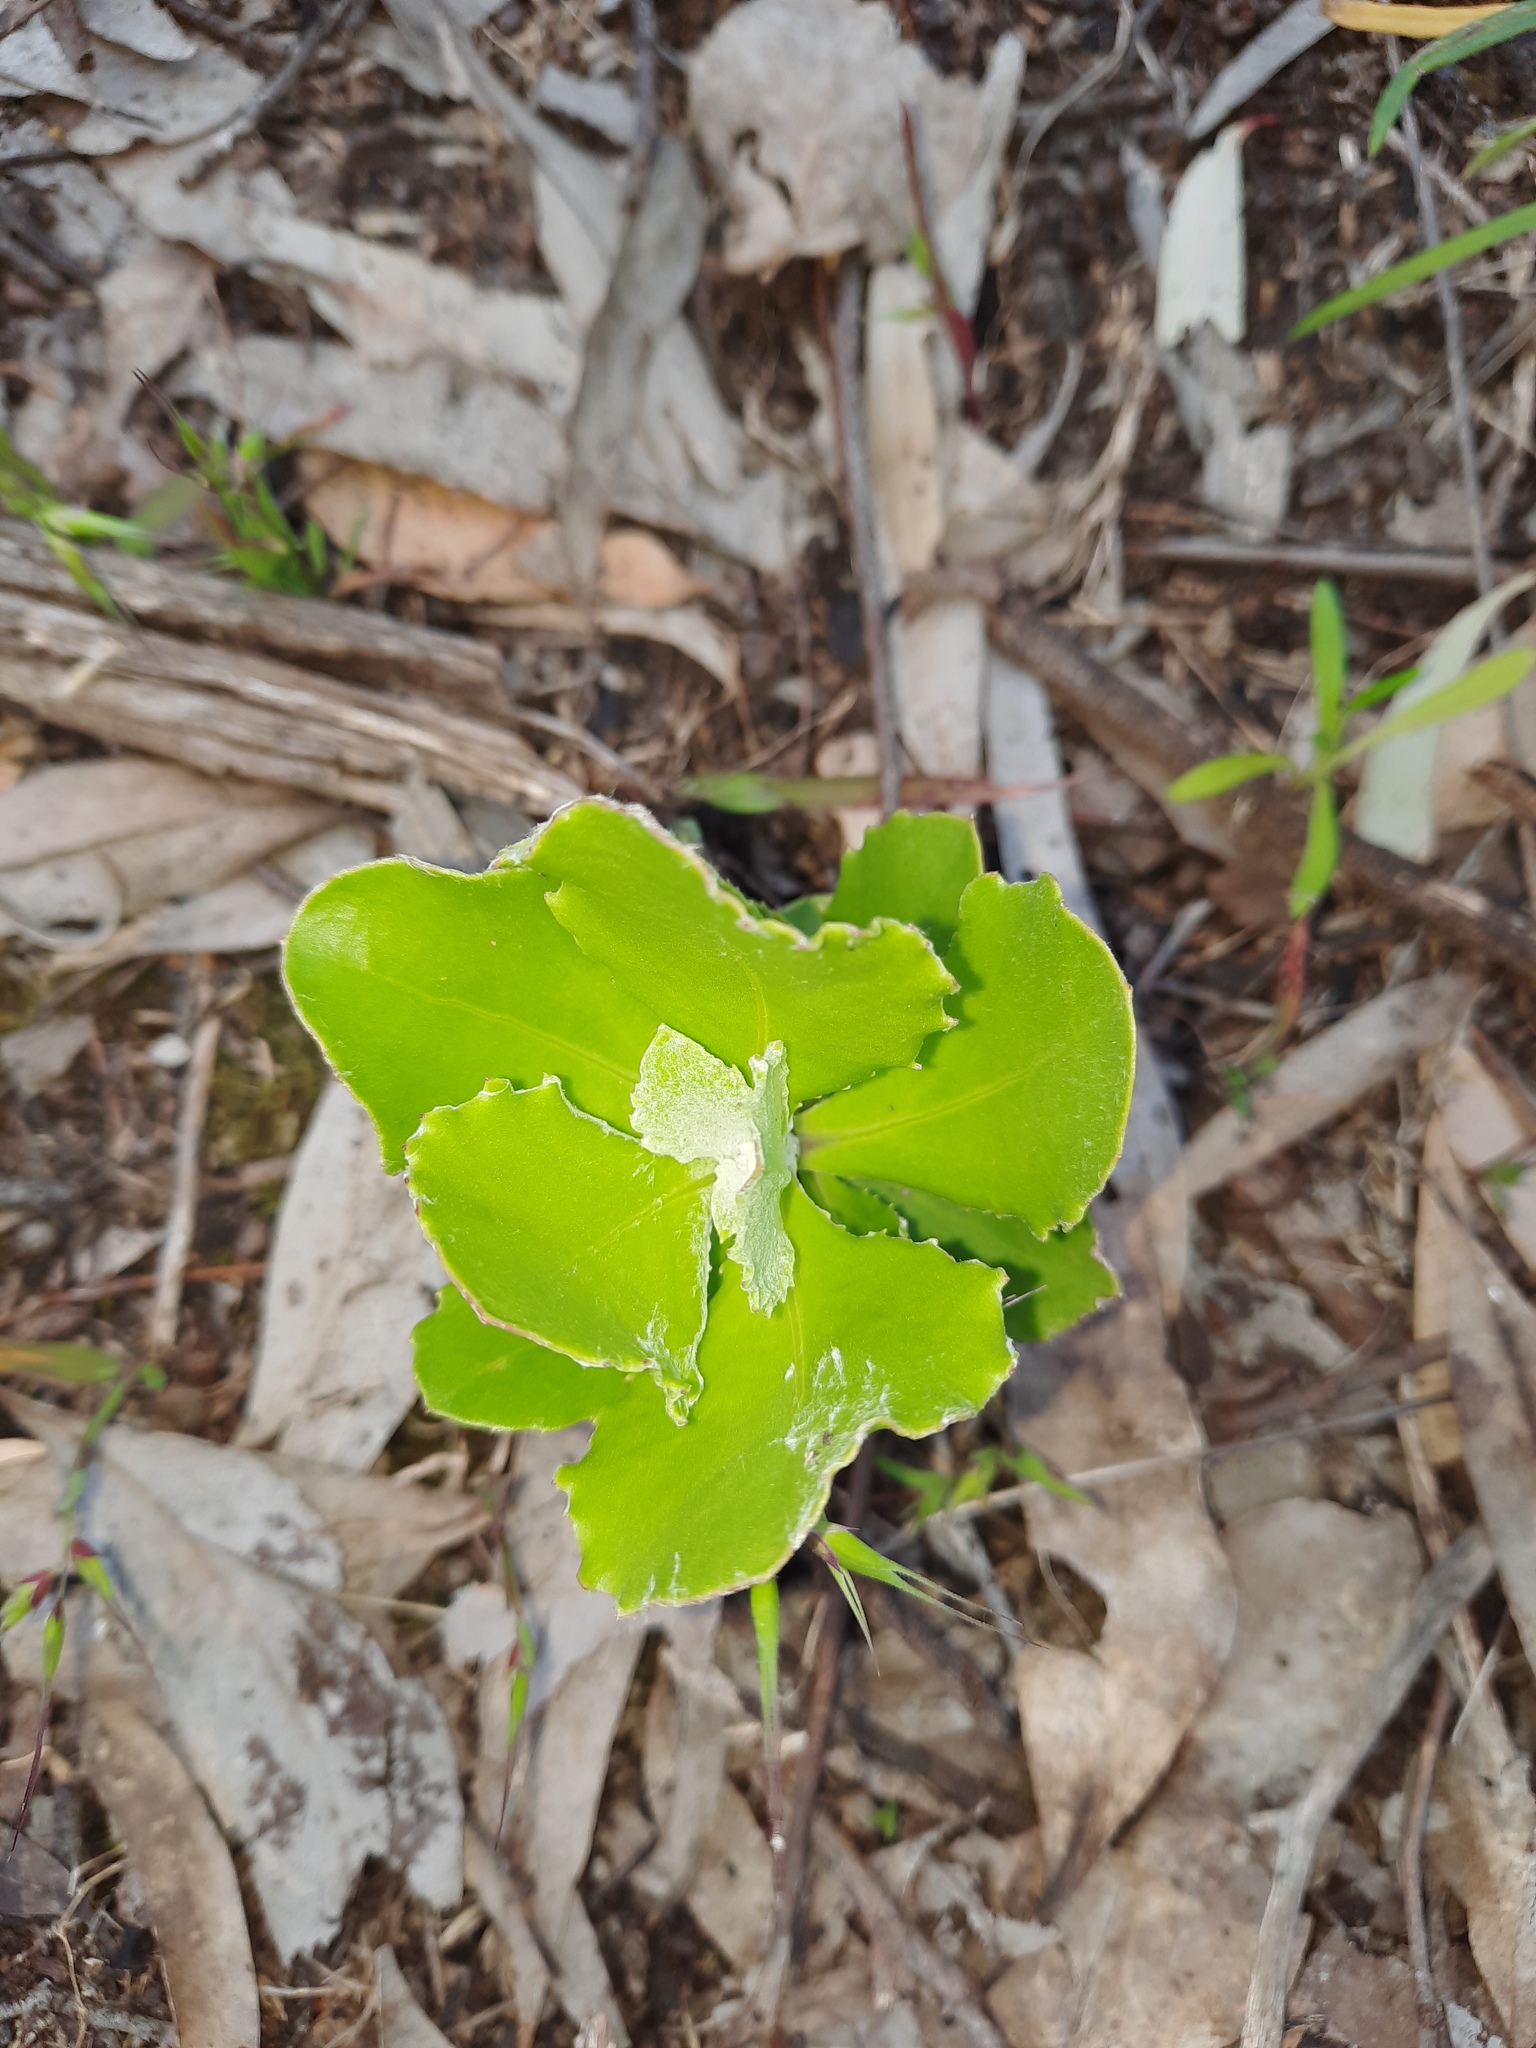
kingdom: Plantae
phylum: Tracheophyta
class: Magnoliopsida
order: Asterales
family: Asteraceae
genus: Osteospermum
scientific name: Osteospermum moniliferum
